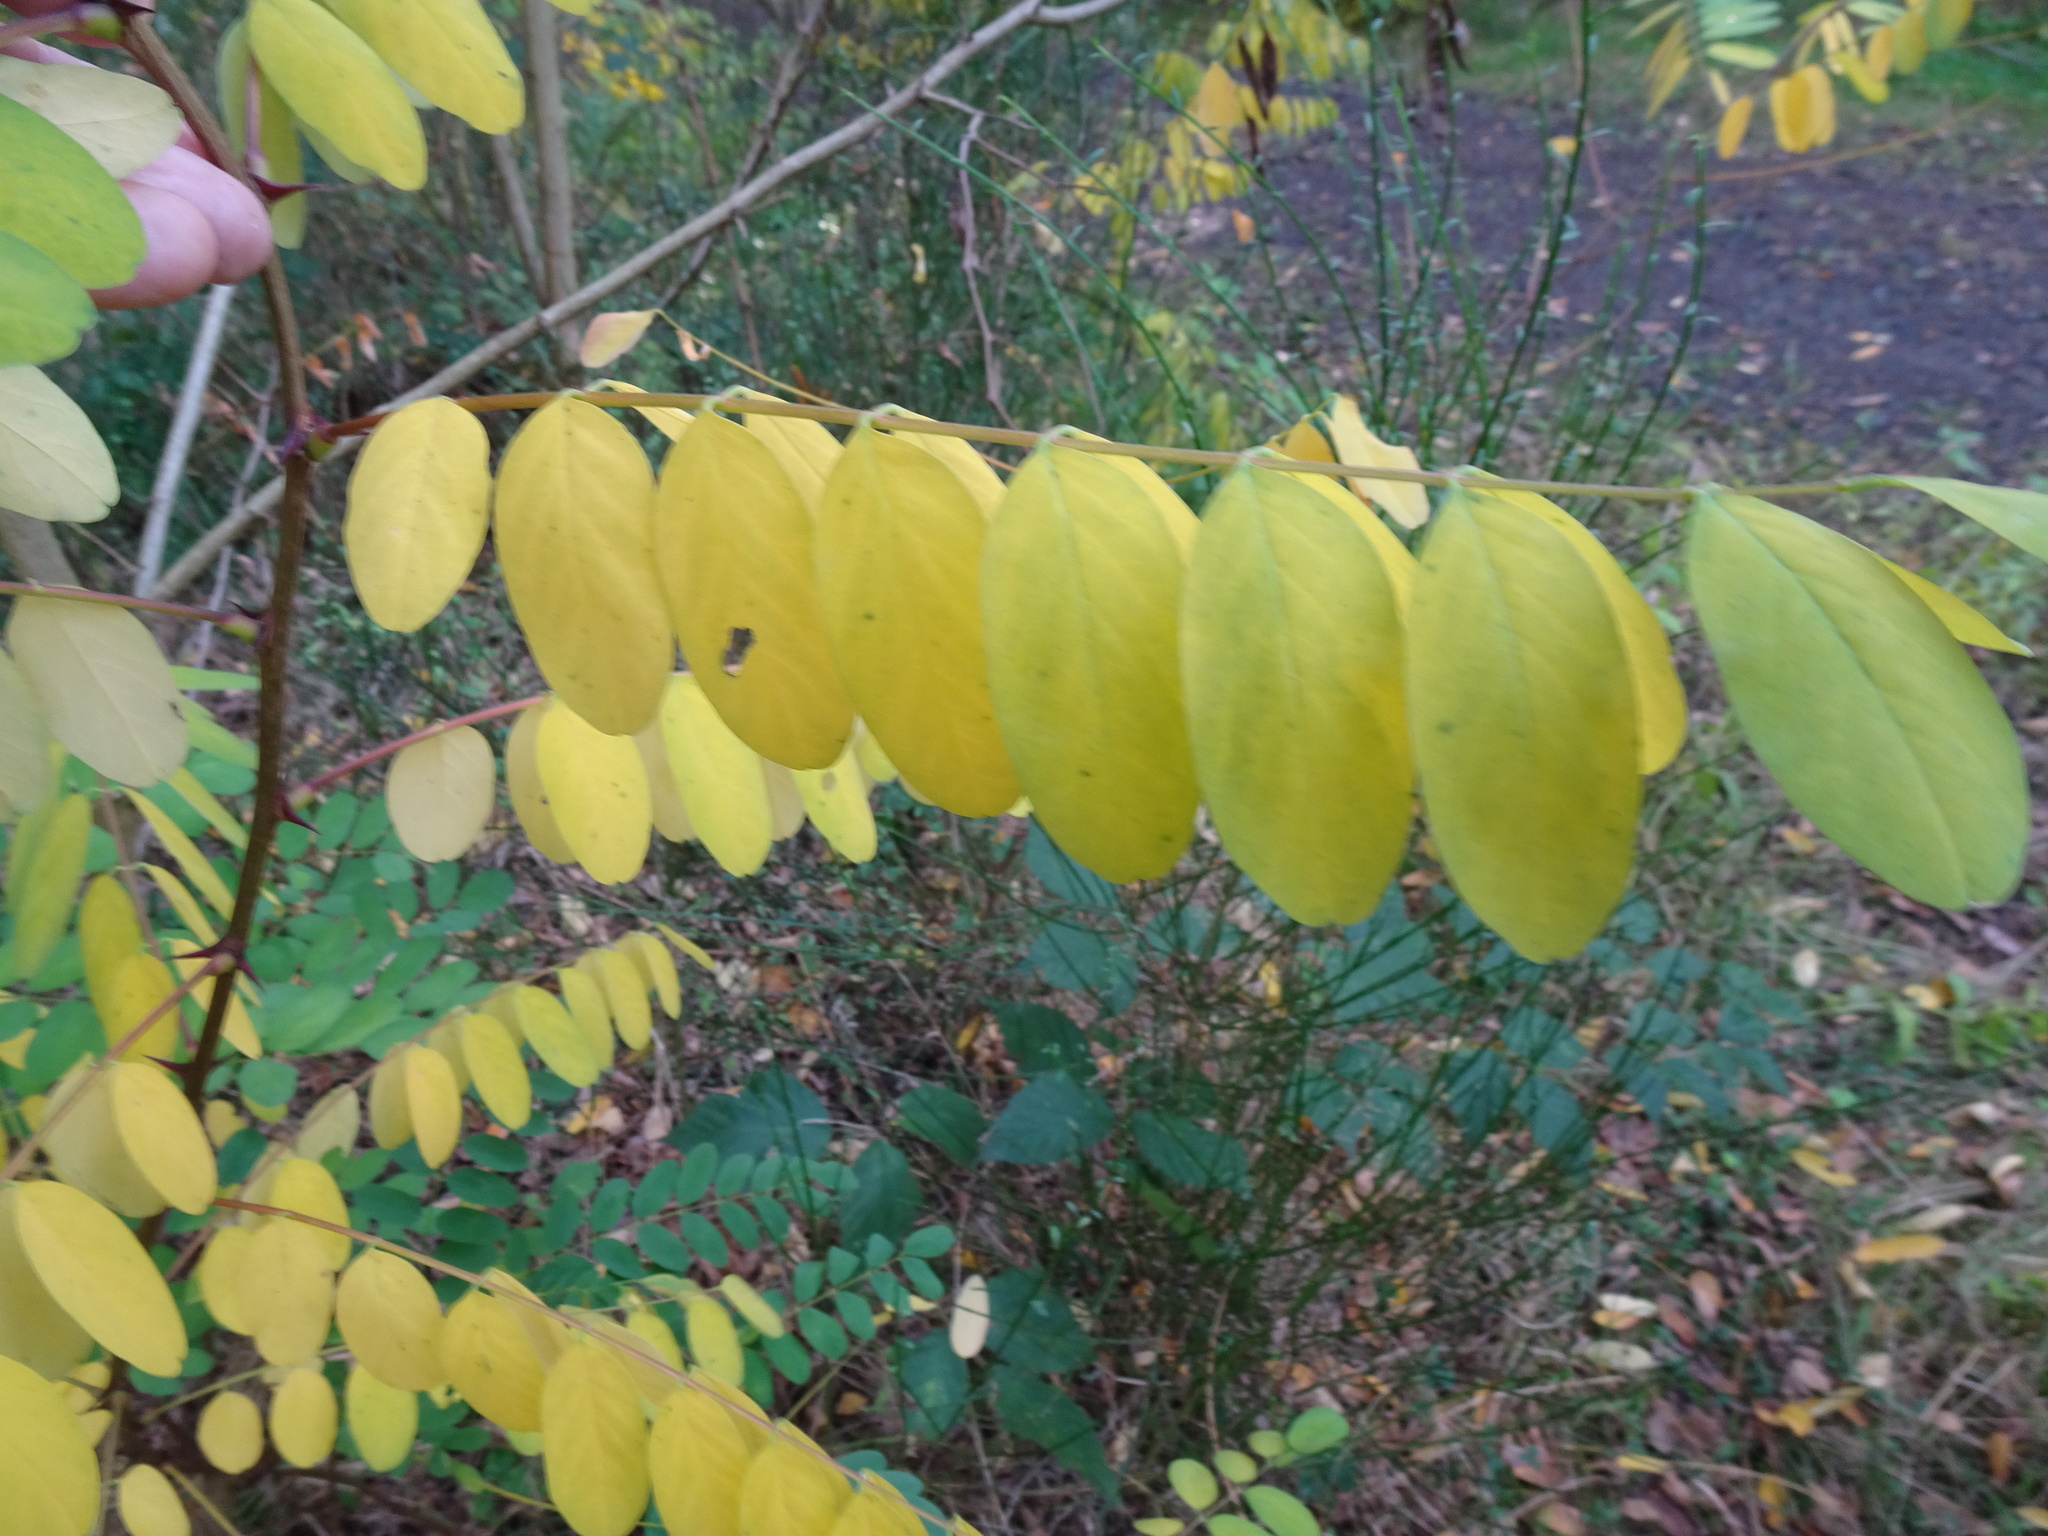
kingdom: Plantae
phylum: Tracheophyta
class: Magnoliopsida
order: Fabales
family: Fabaceae
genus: Robinia
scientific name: Robinia pseudoacacia
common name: Black locust
